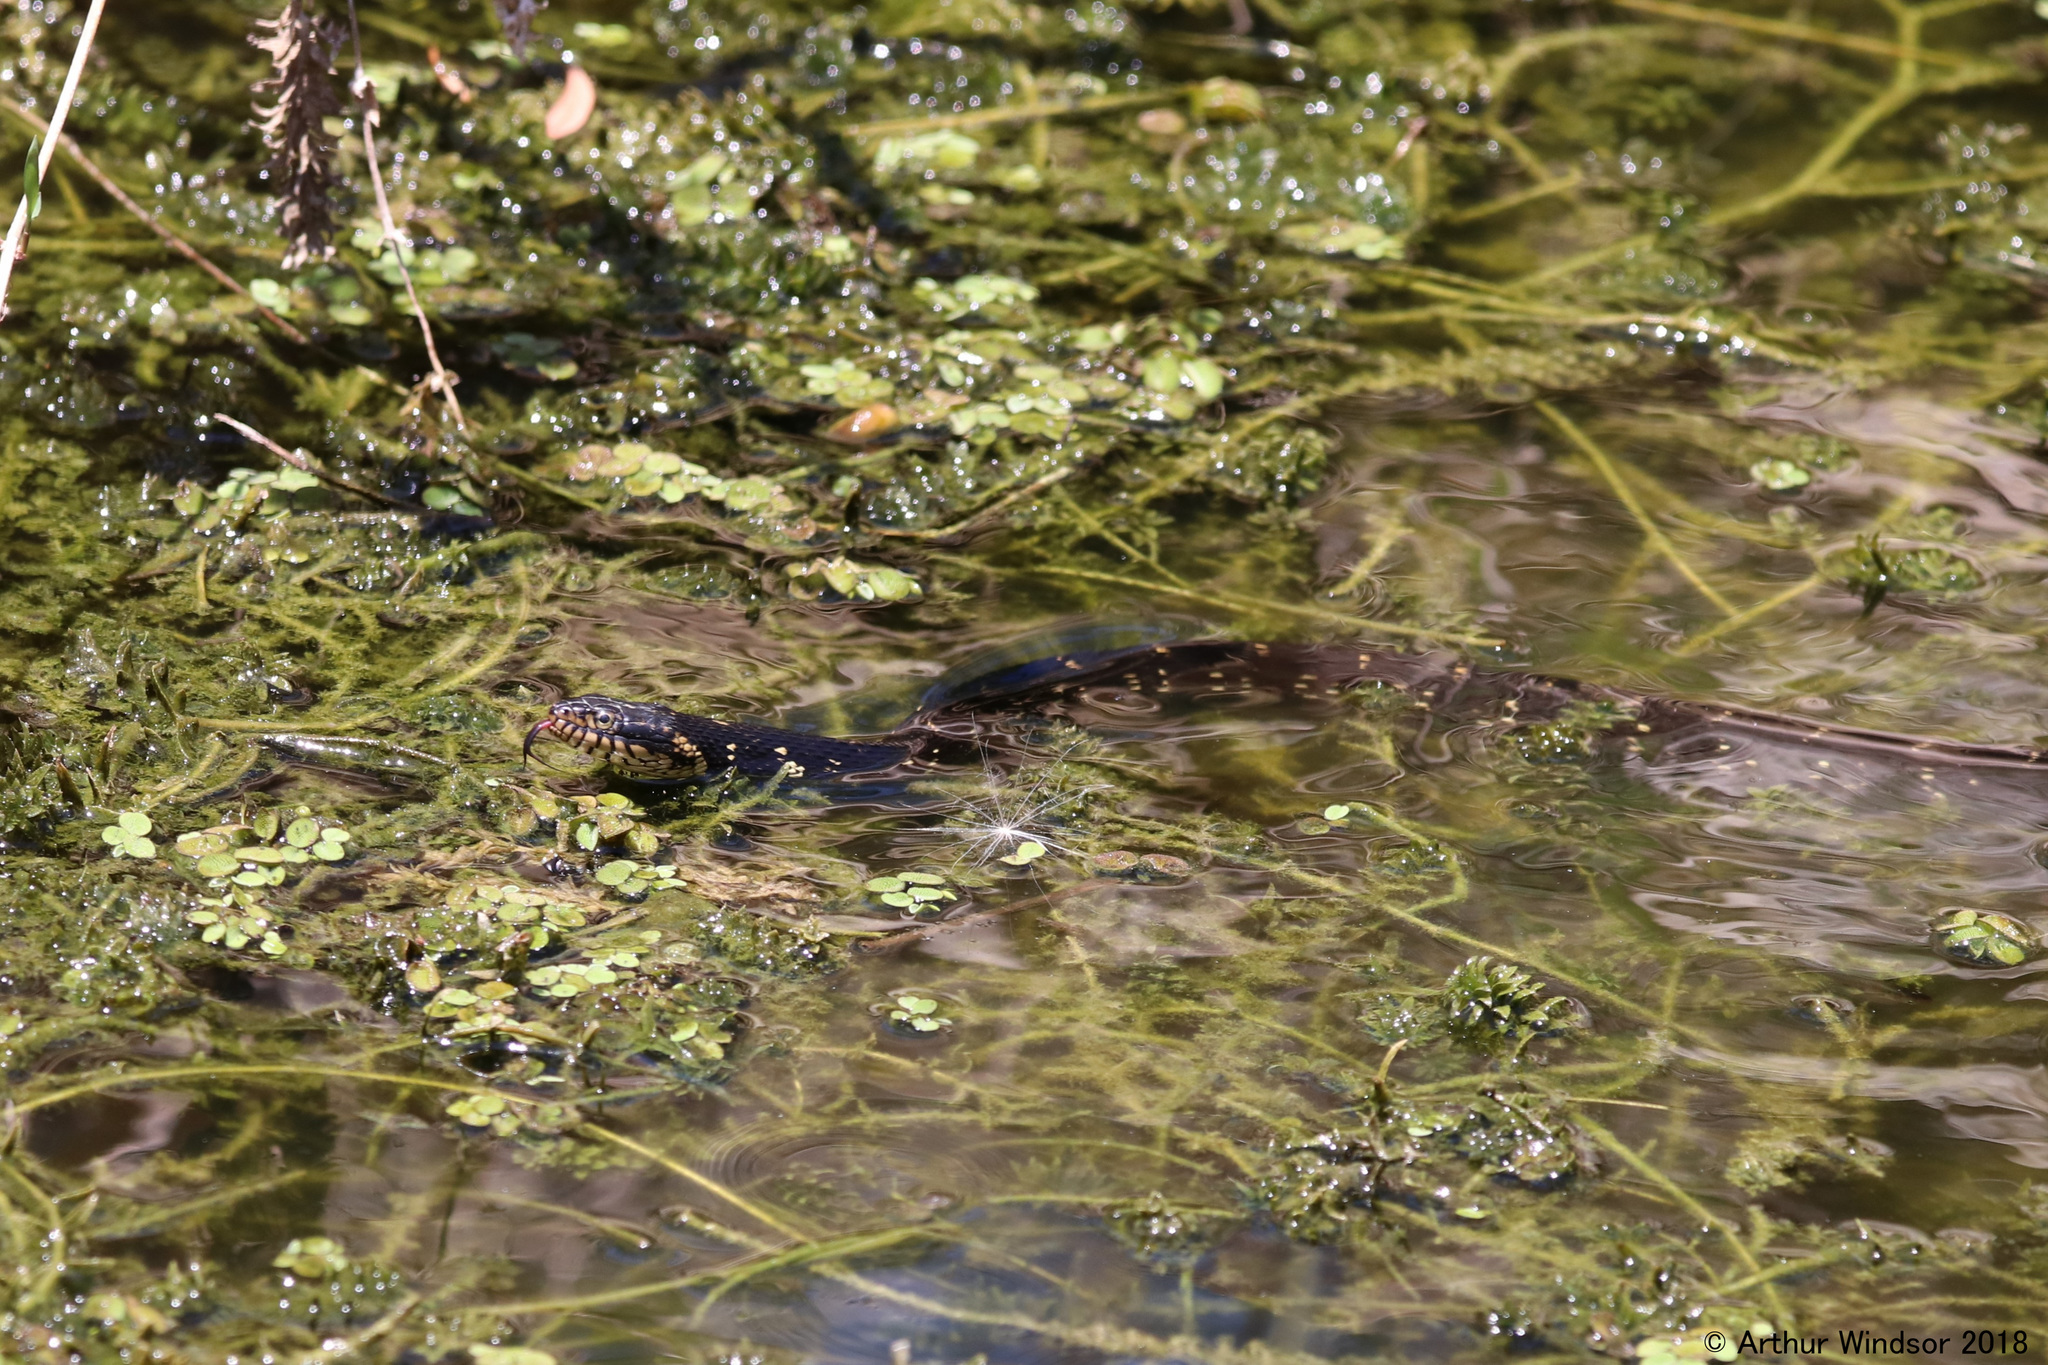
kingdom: Animalia
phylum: Chordata
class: Squamata
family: Colubridae
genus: Nerodia
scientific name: Nerodia fasciata
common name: Southern water snake
